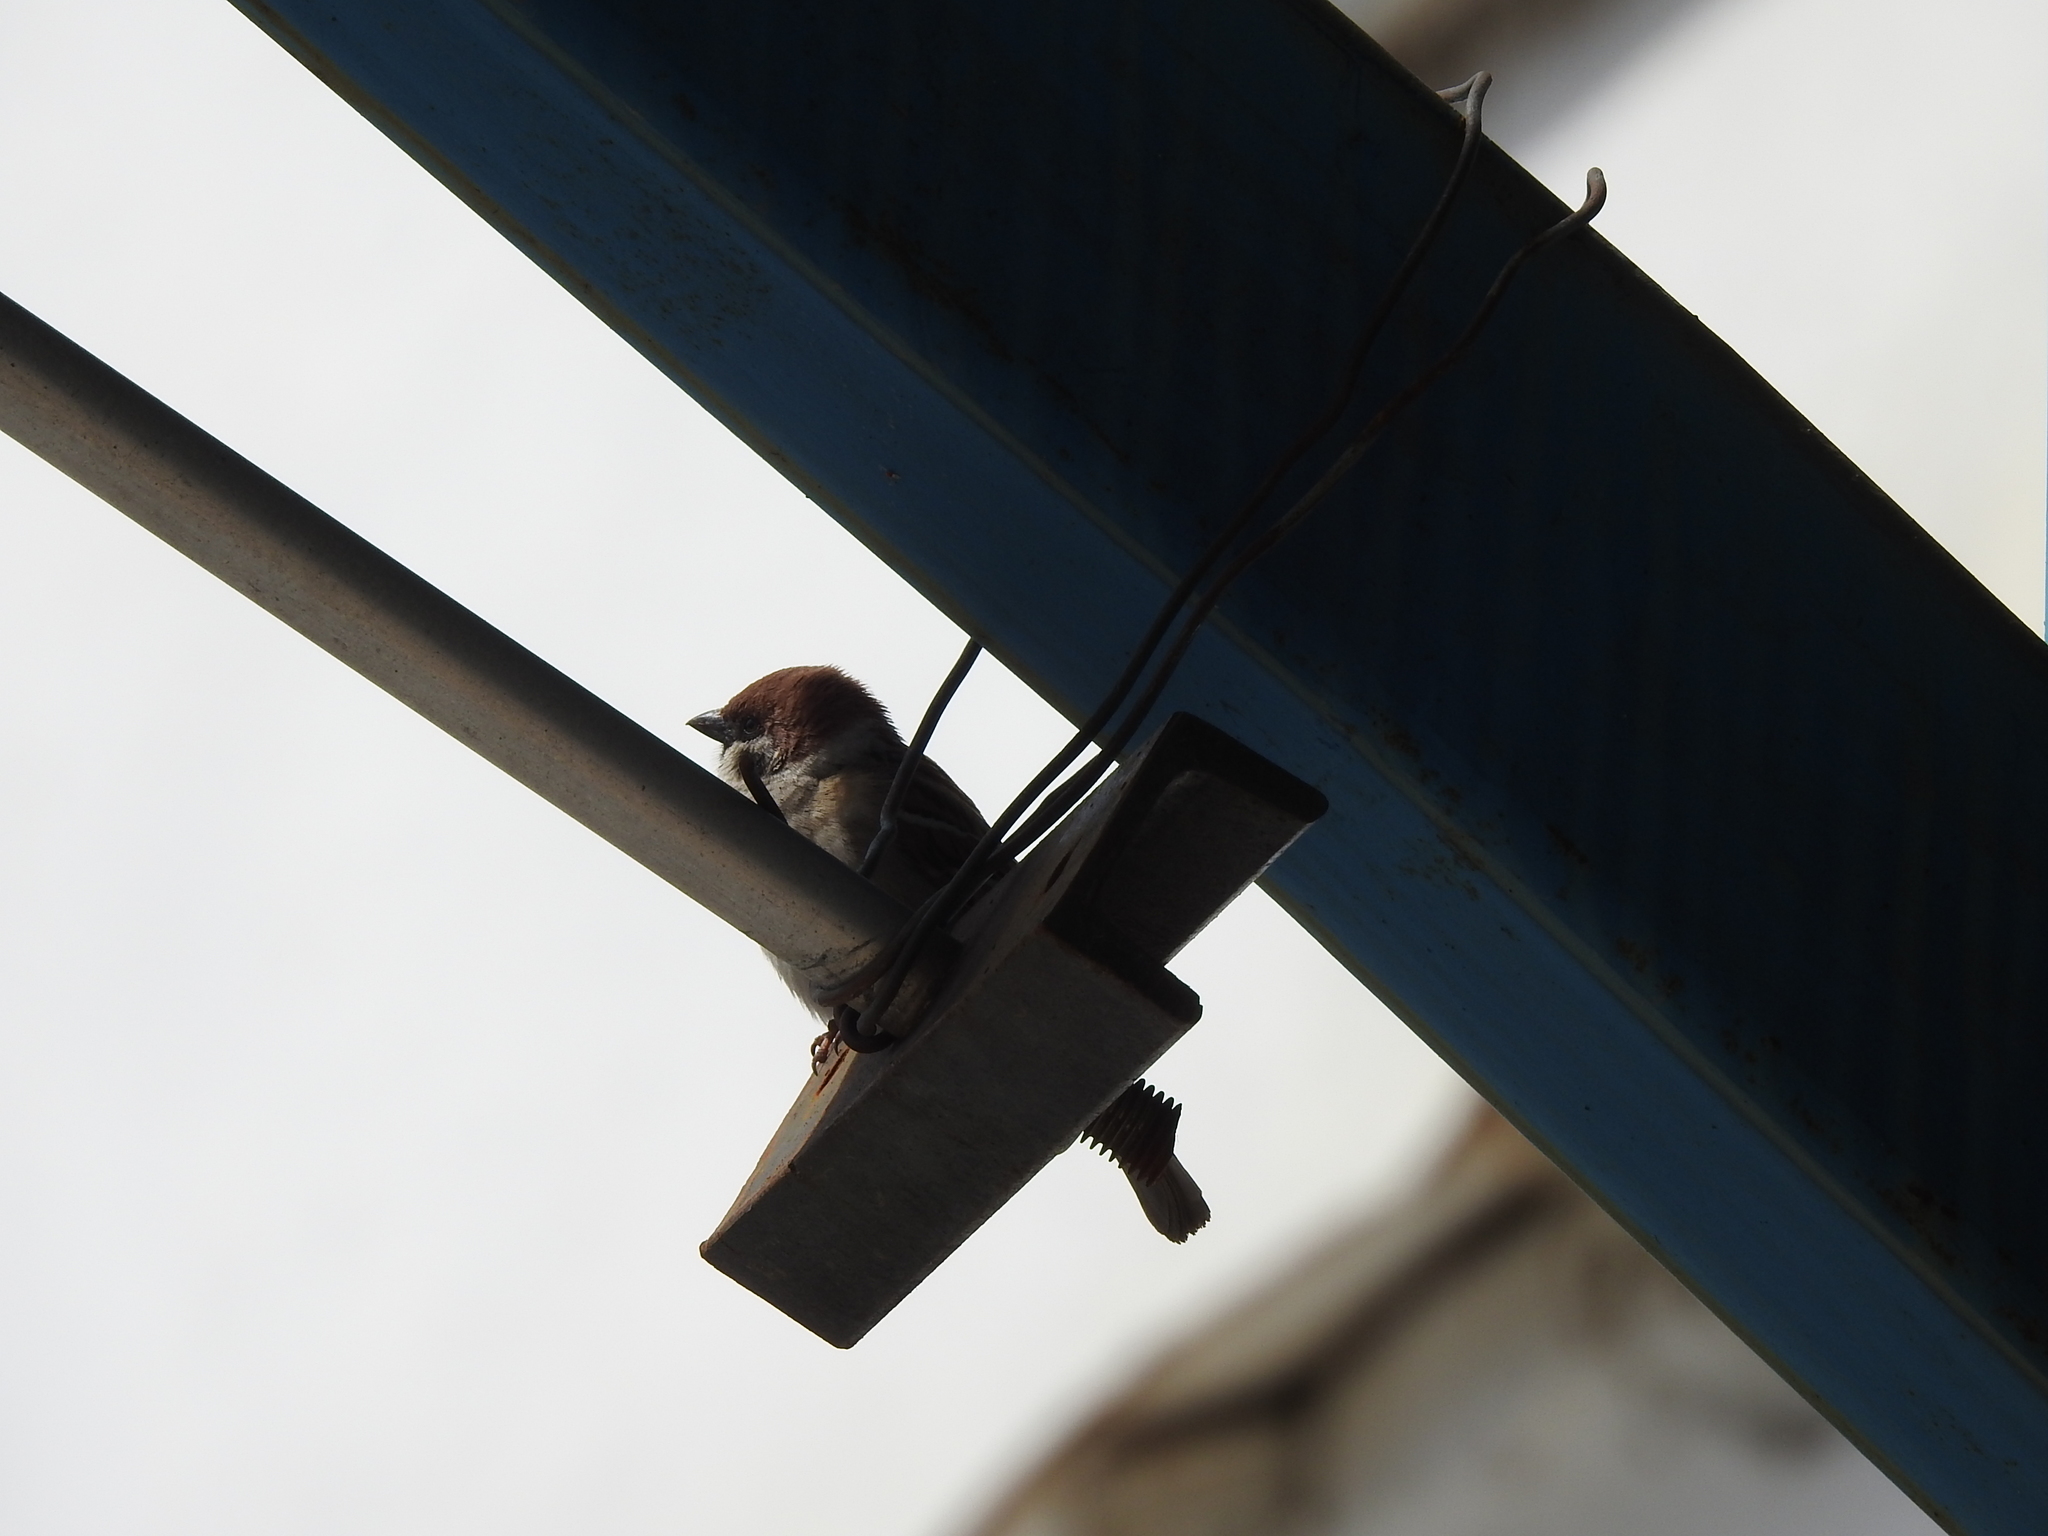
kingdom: Animalia
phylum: Chordata
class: Aves
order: Passeriformes
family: Passeridae
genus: Passer
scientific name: Passer montanus
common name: Eurasian tree sparrow
